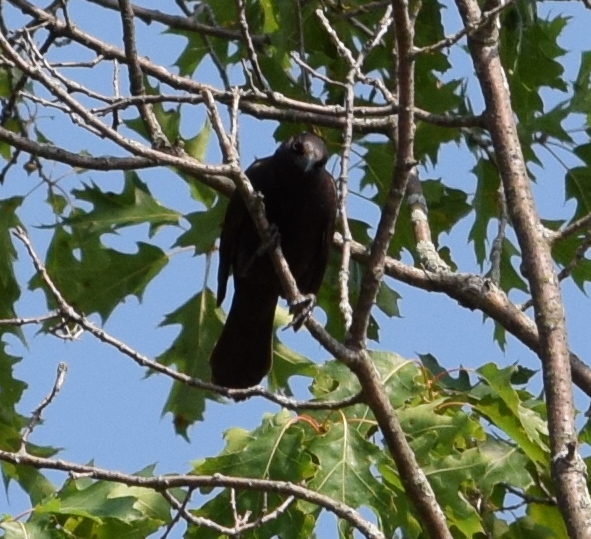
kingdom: Animalia
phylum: Chordata
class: Aves
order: Passeriformes
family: Icteridae
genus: Quiscalus
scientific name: Quiscalus quiscula
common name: Common grackle
